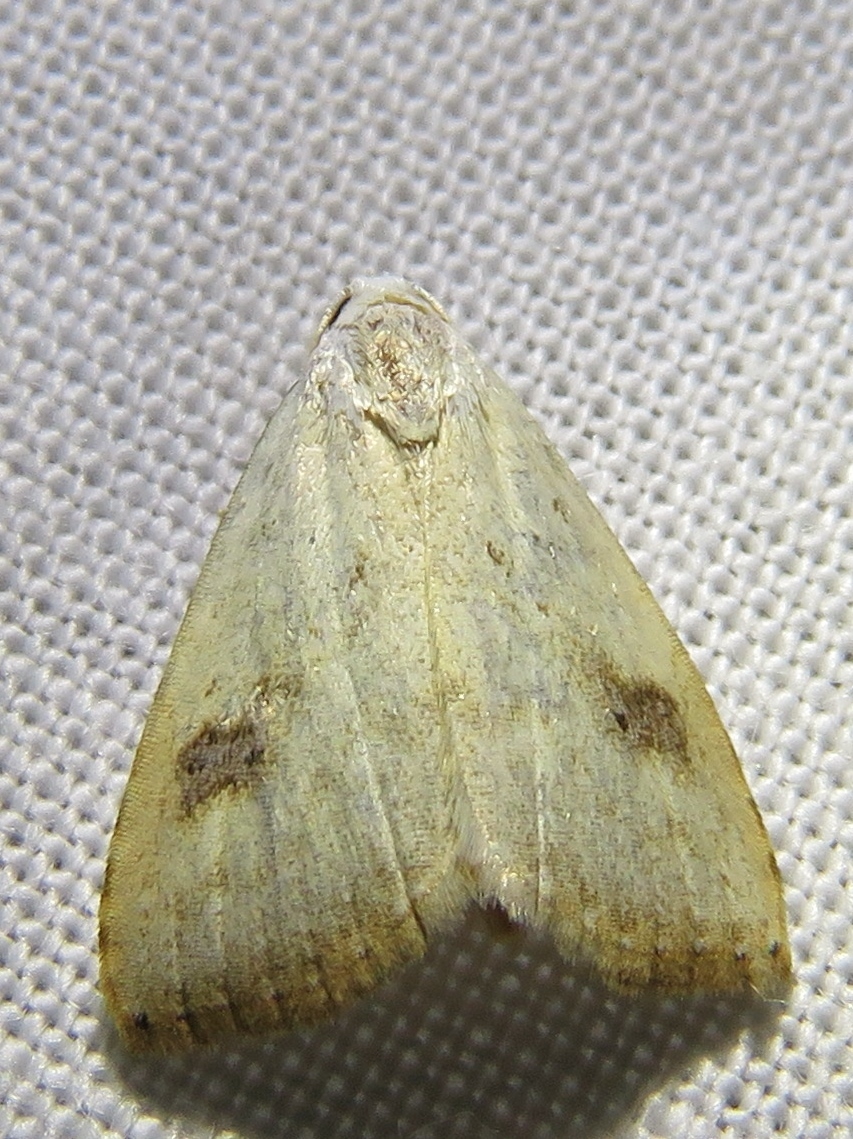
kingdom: Animalia
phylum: Arthropoda
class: Insecta
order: Lepidoptera
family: Erebidae
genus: Rivula
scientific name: Rivula sericealis
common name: Straw dot
